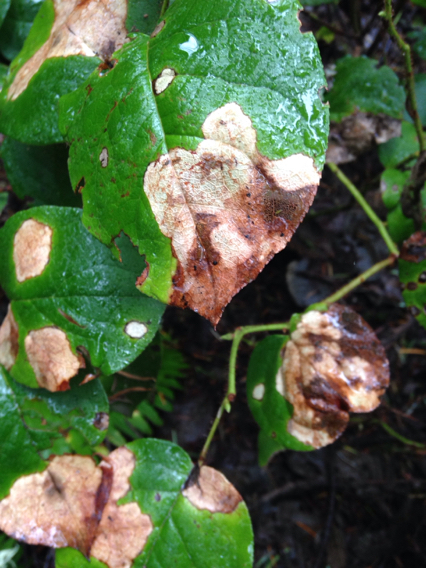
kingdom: Plantae
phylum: Tracheophyta
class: Magnoliopsida
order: Ericales
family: Ericaceae
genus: Gaultheria
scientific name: Gaultheria shallon
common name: Shallon
